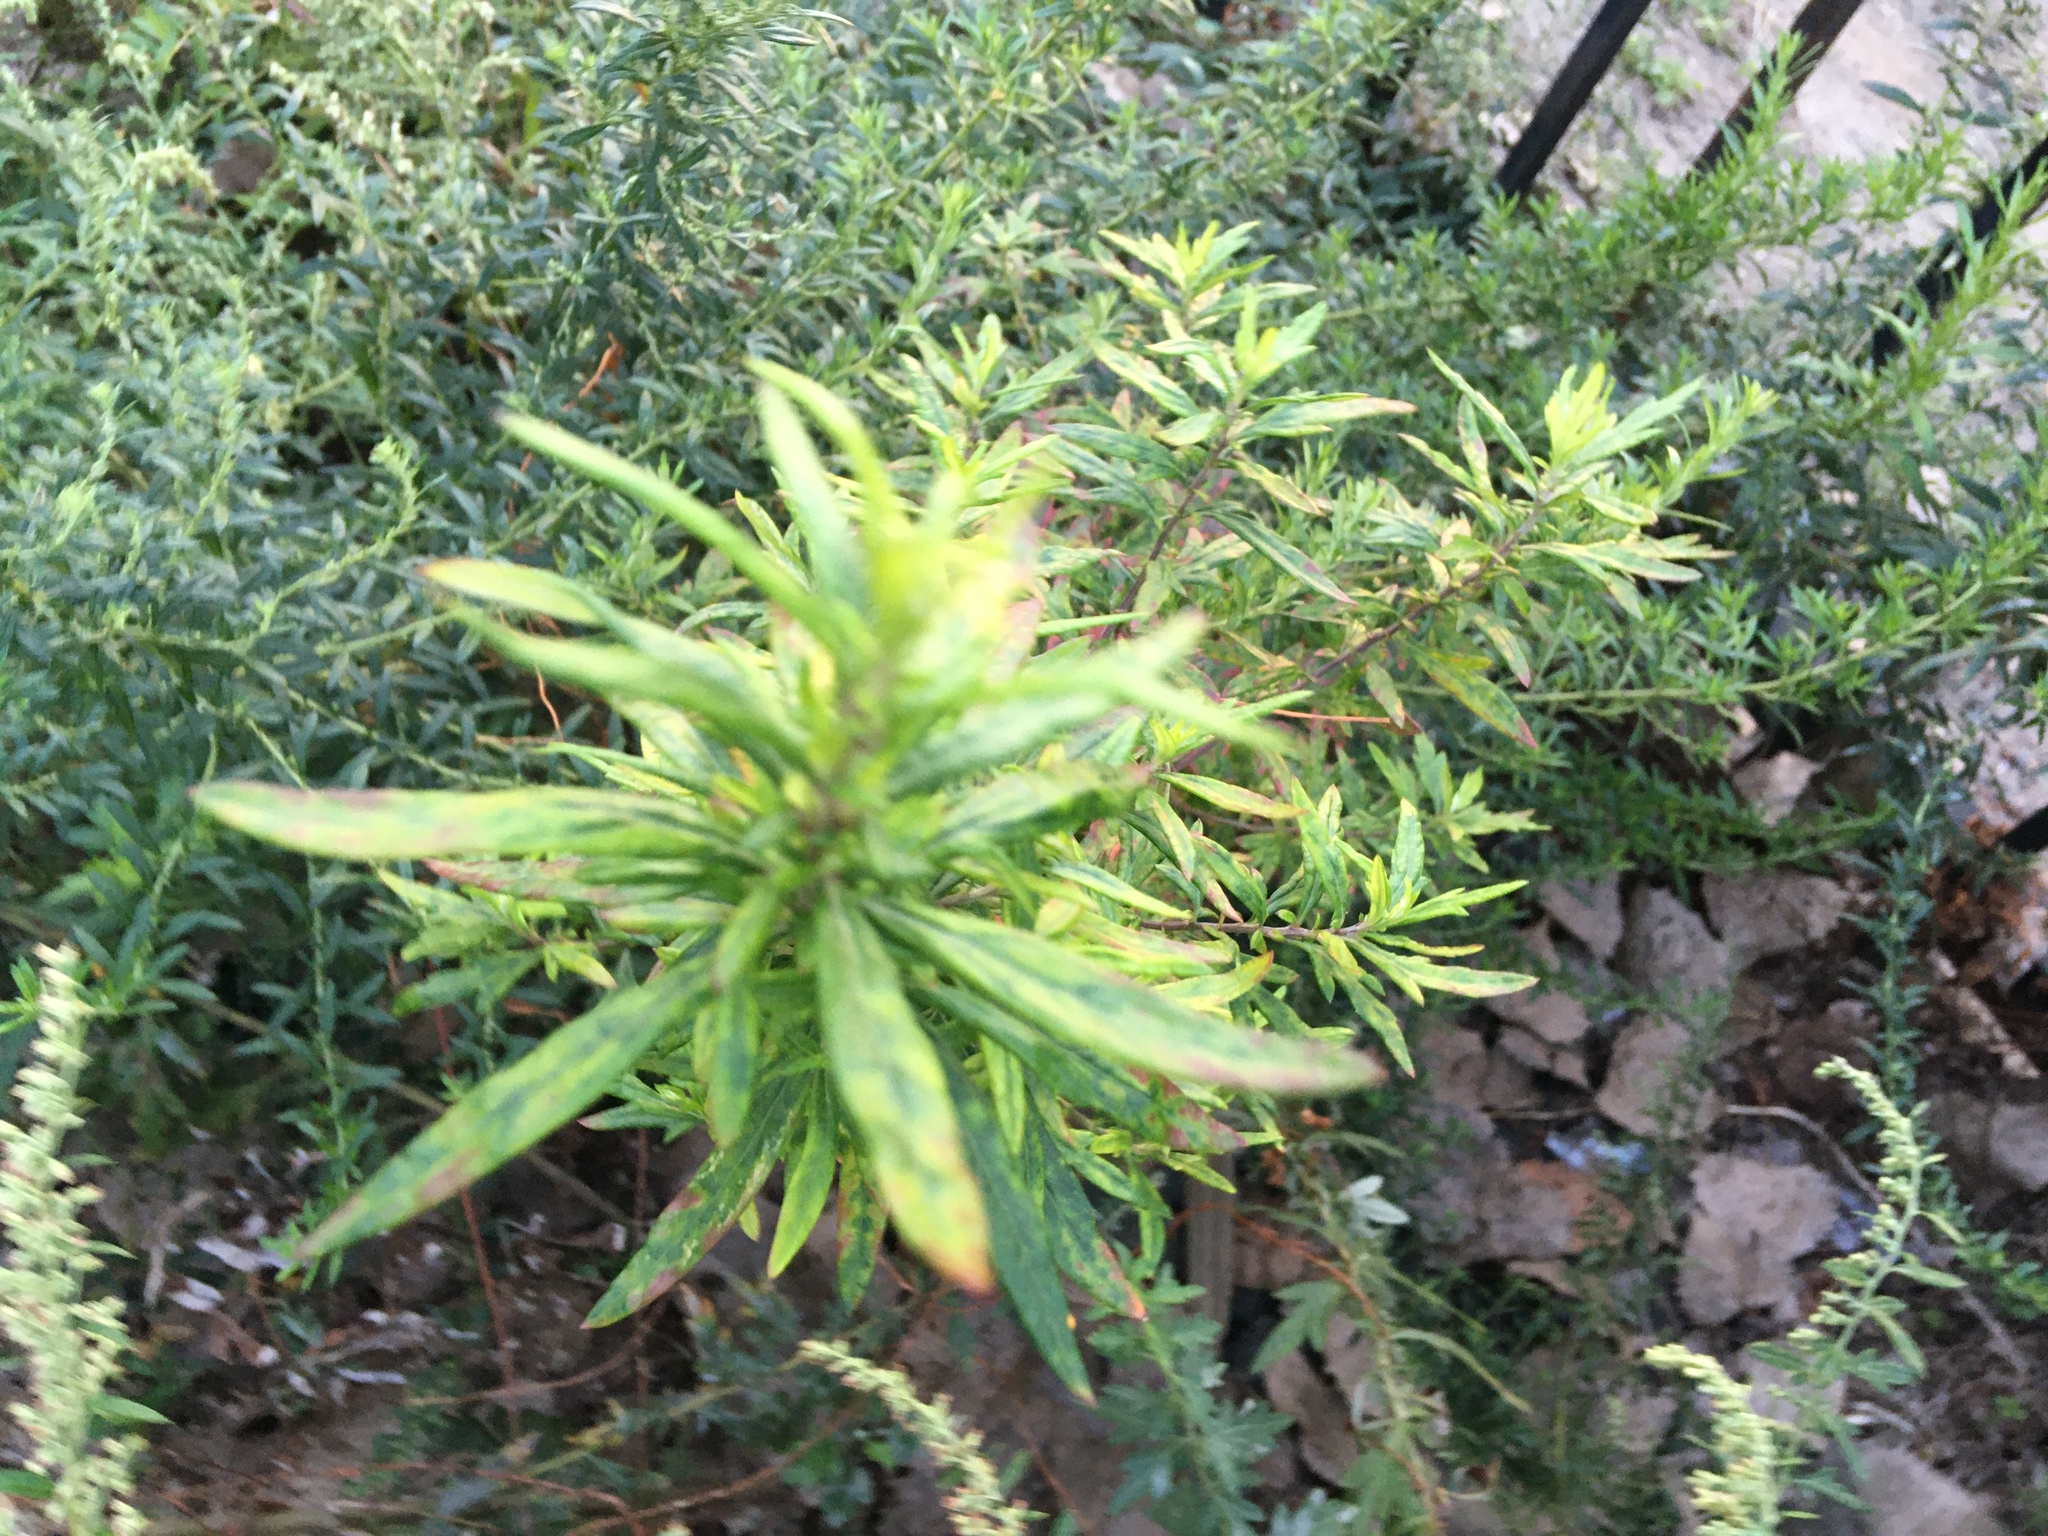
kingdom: Plantae
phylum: Tracheophyta
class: Magnoliopsida
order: Asterales
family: Asteraceae
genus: Artemisia
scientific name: Artemisia vulgaris
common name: Mugwort
